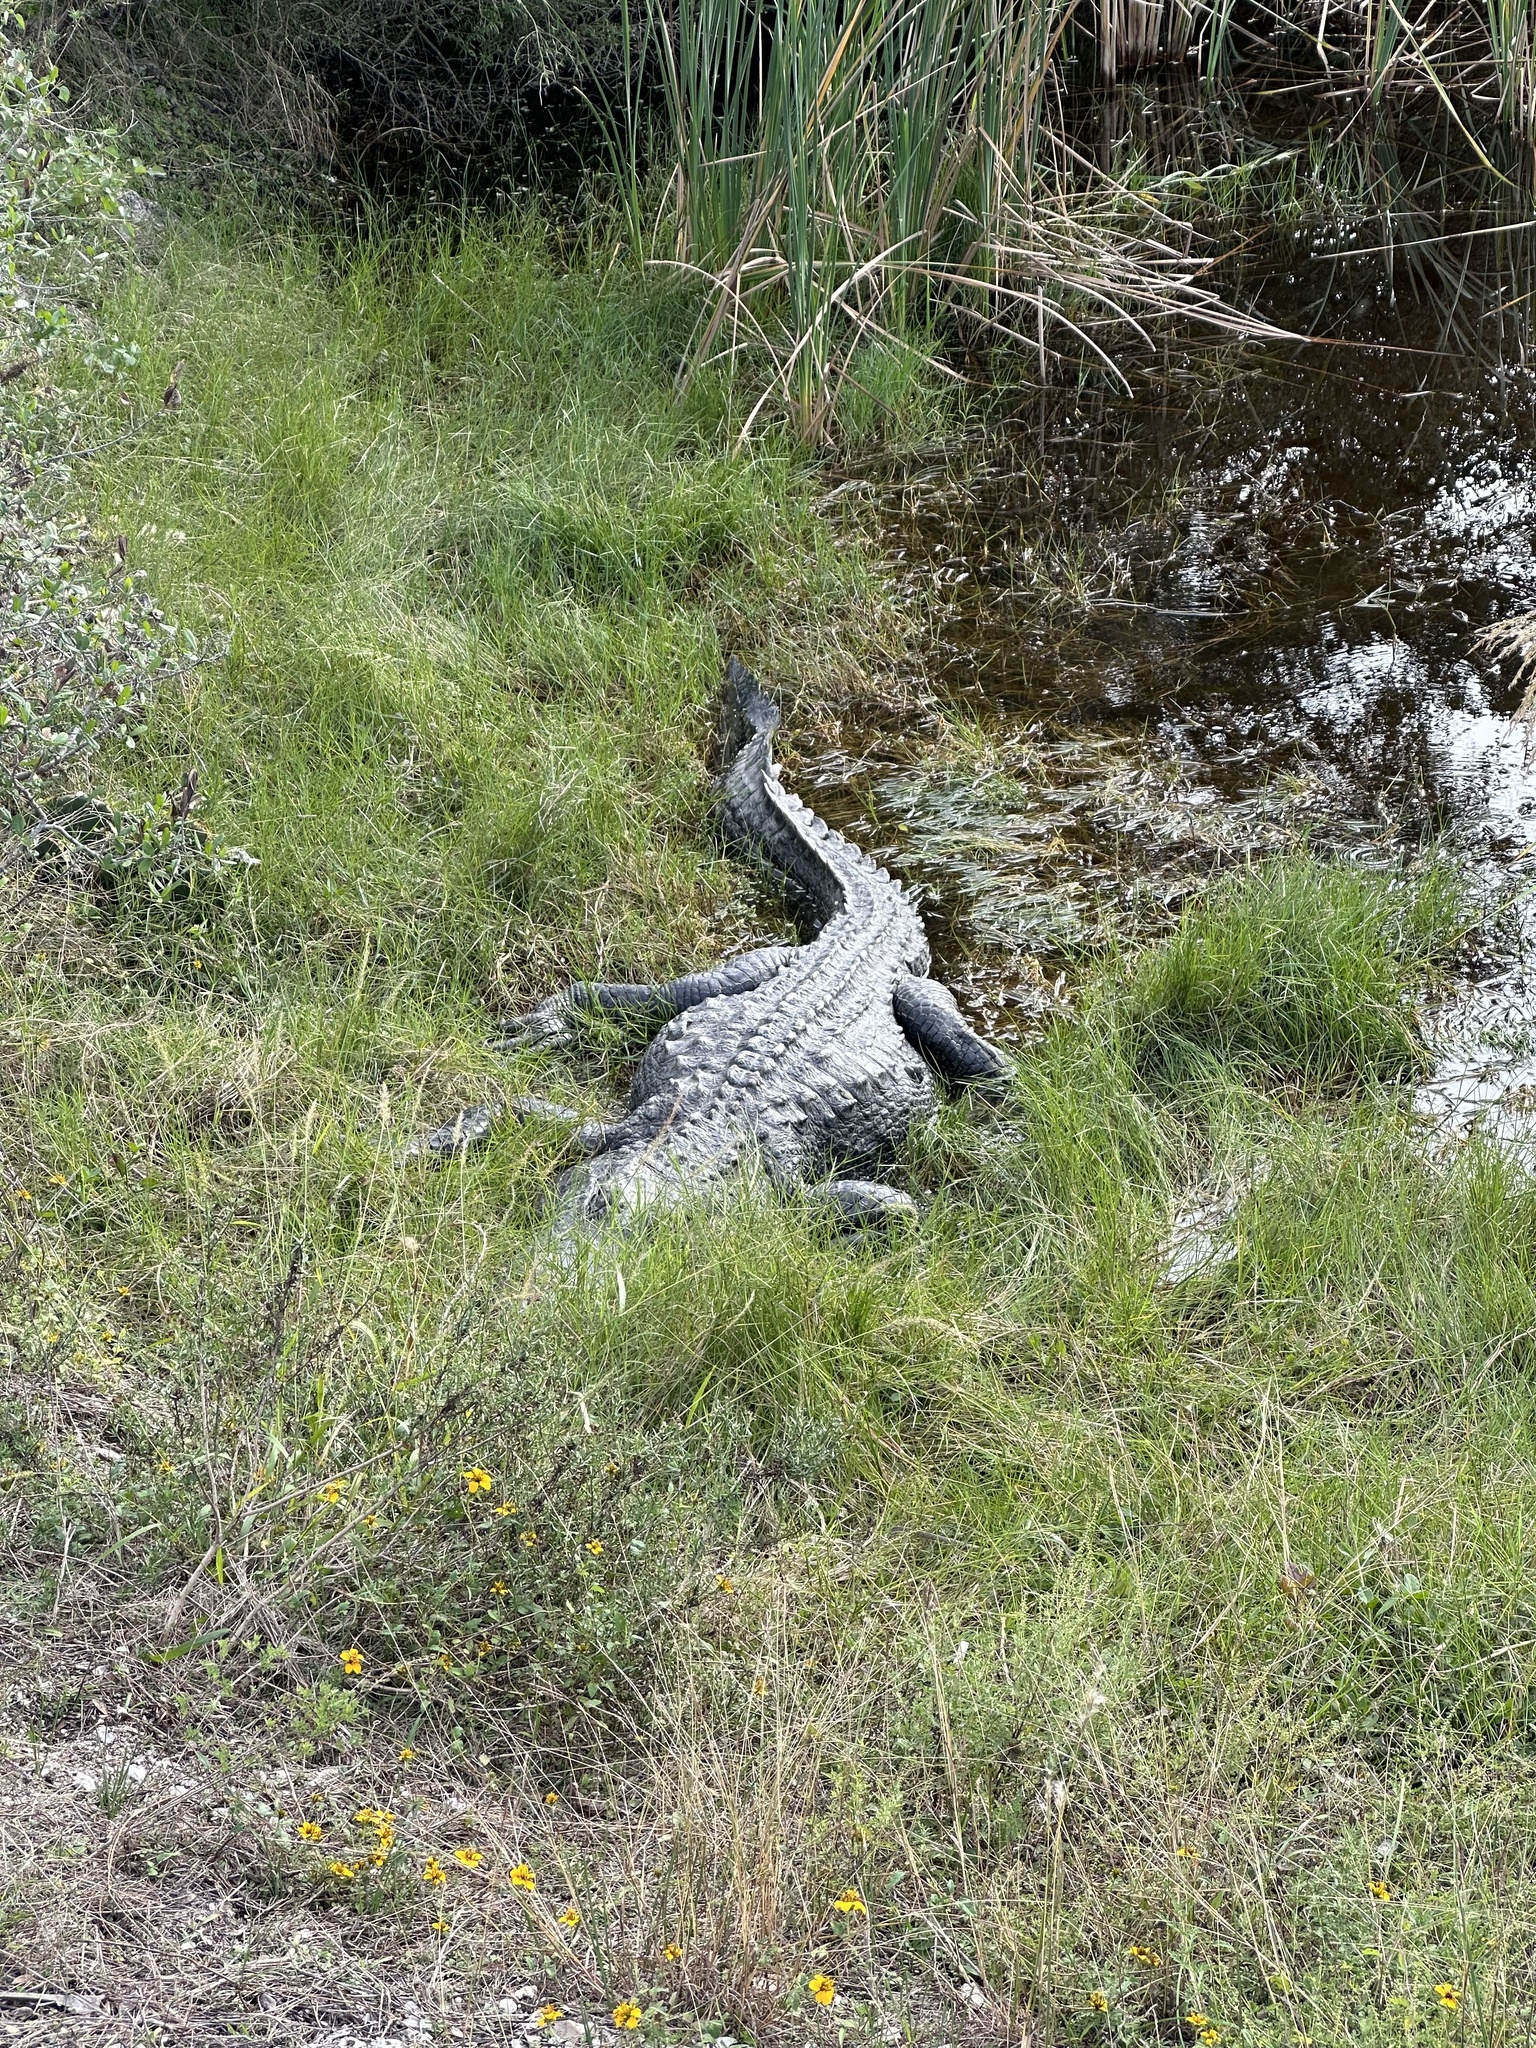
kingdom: Animalia
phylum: Chordata
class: Crocodylia
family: Alligatoridae
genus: Alligator
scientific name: Alligator mississippiensis
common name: American alligator
